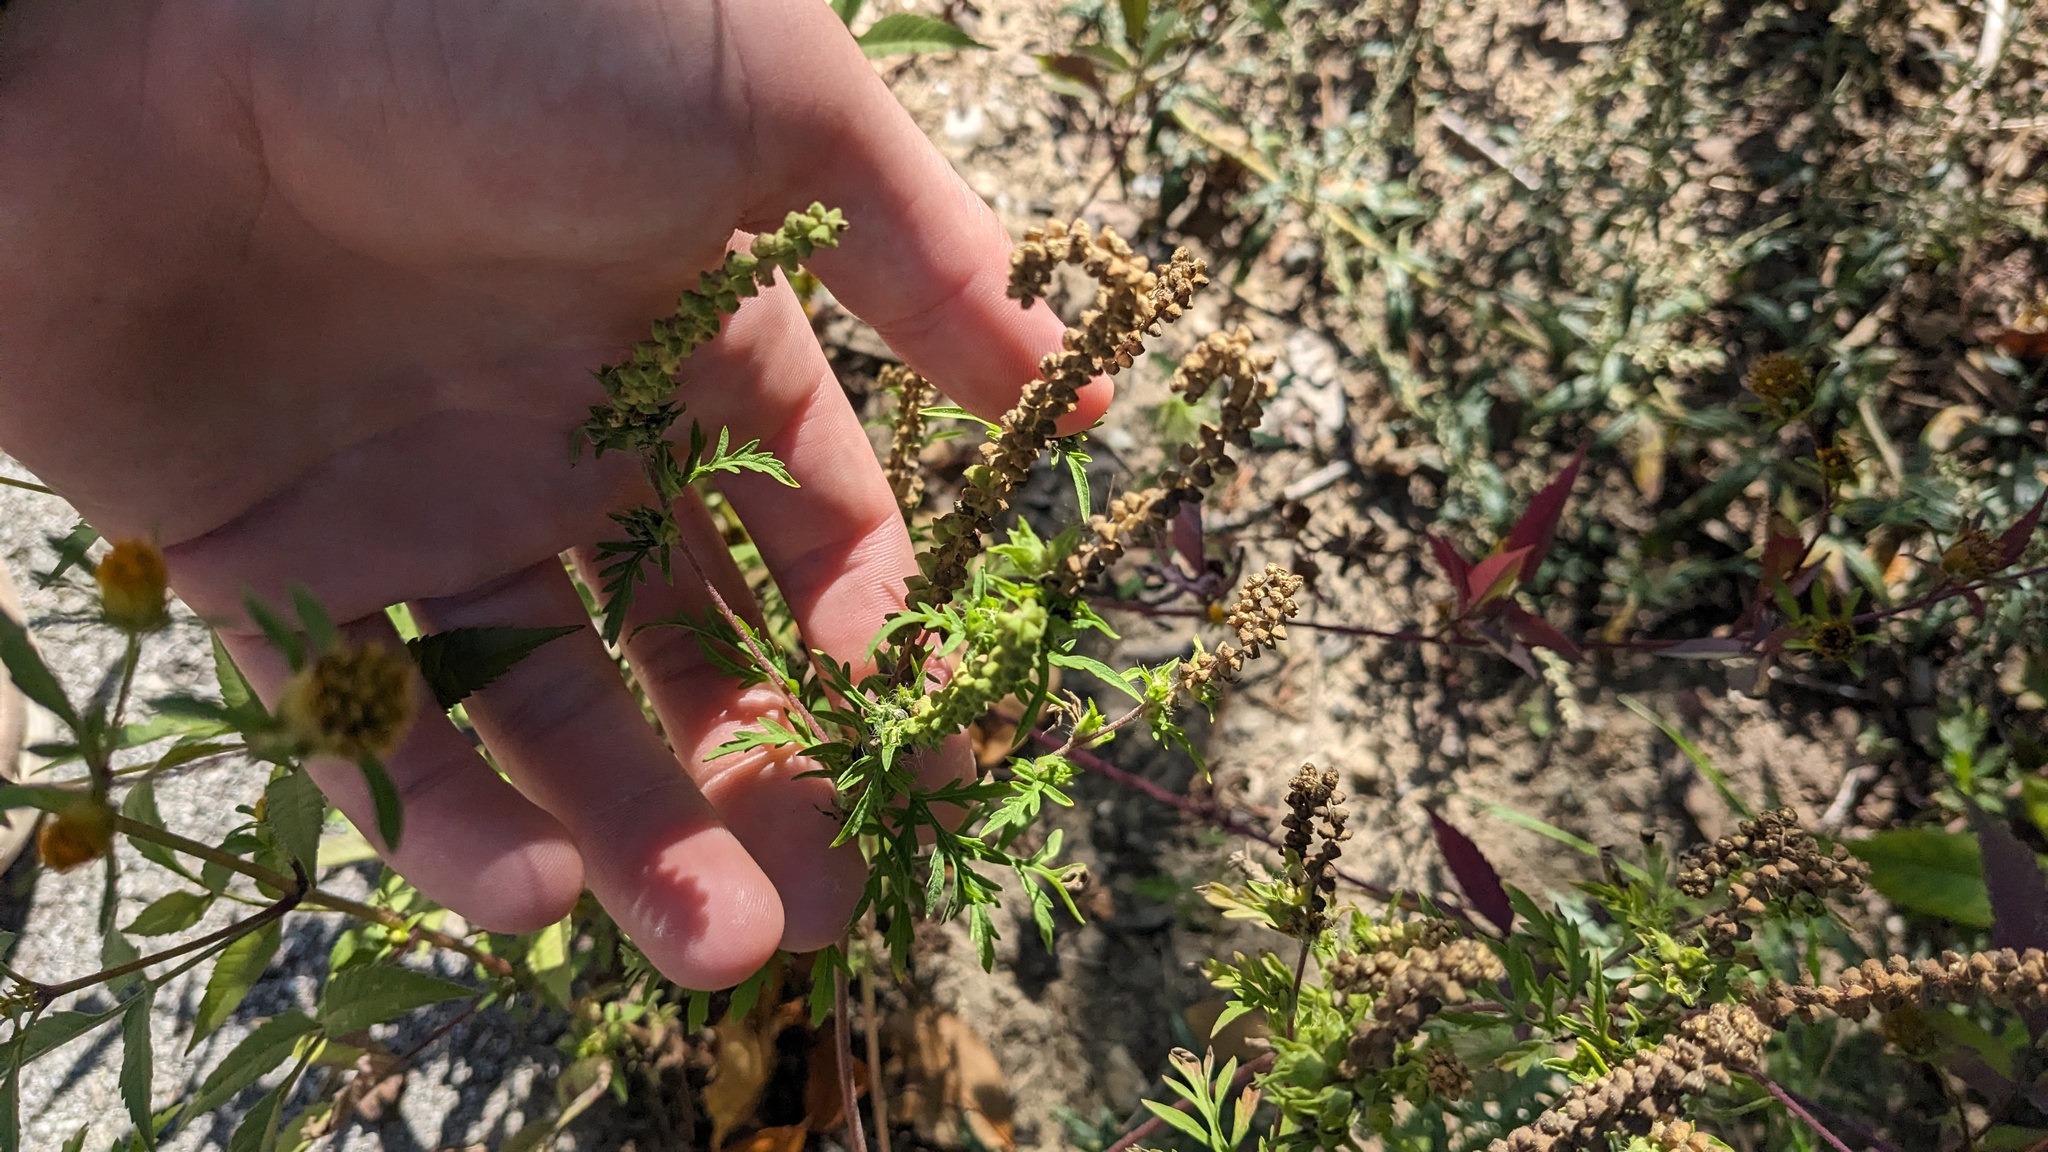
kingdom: Plantae
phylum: Tracheophyta
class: Magnoliopsida
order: Asterales
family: Asteraceae
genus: Ambrosia
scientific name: Ambrosia artemisiifolia
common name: Annual ragweed
